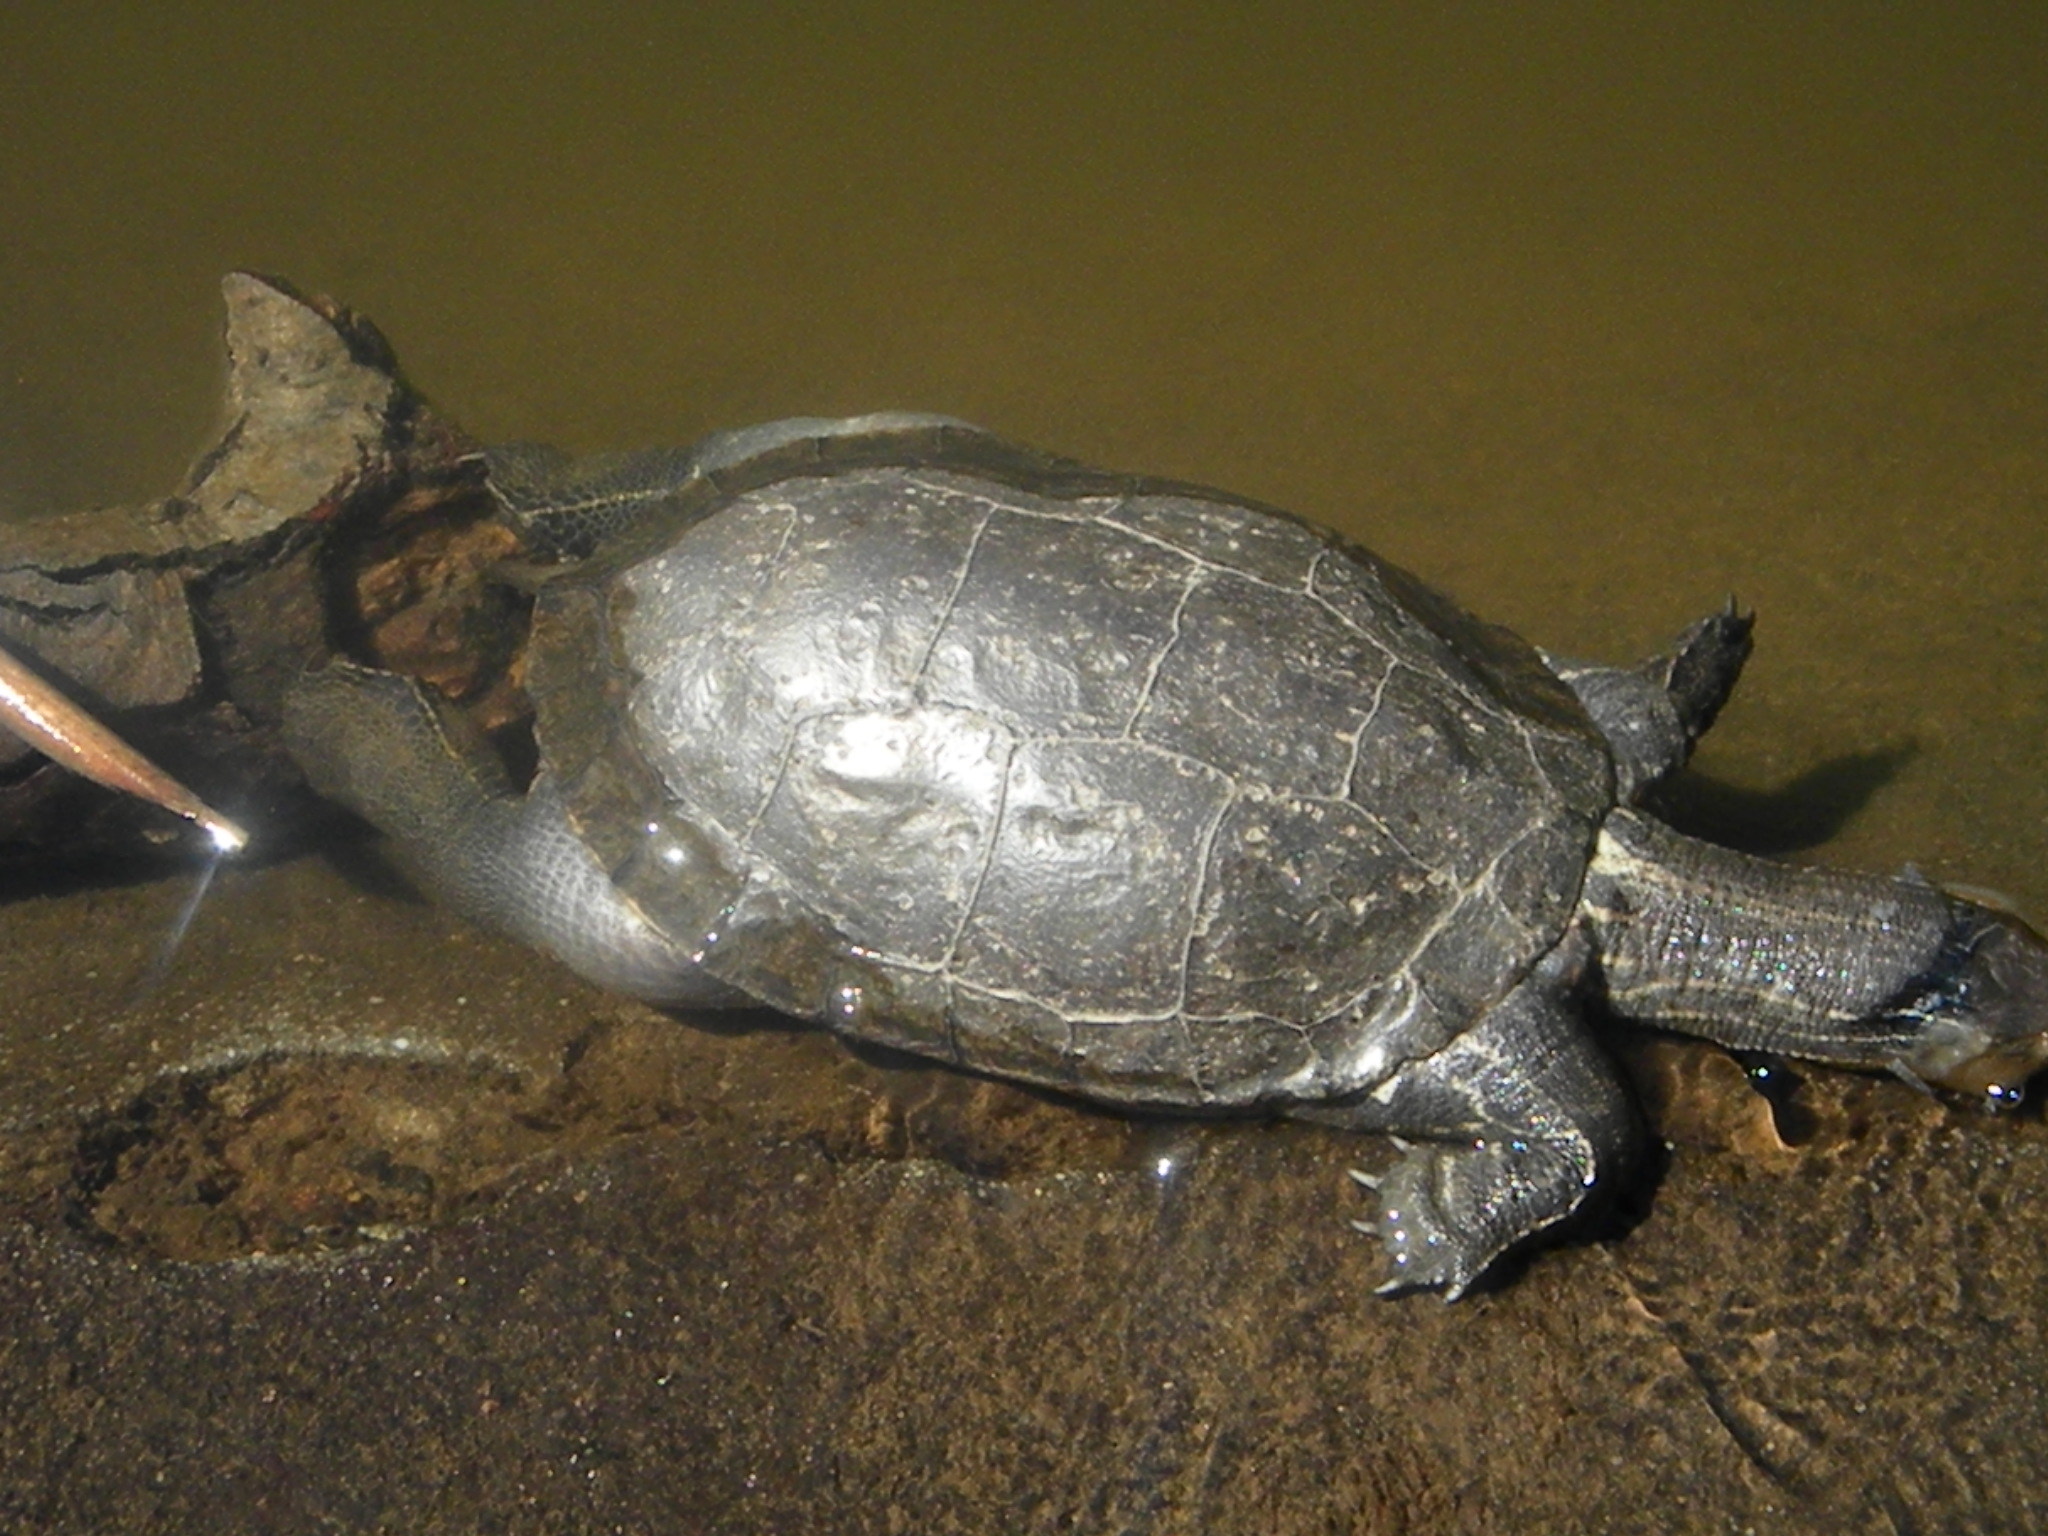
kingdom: Animalia
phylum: Chordata
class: Testudines
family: Geoemydidae
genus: Mauremys
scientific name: Mauremys rivulata
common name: Western caspian turtle
